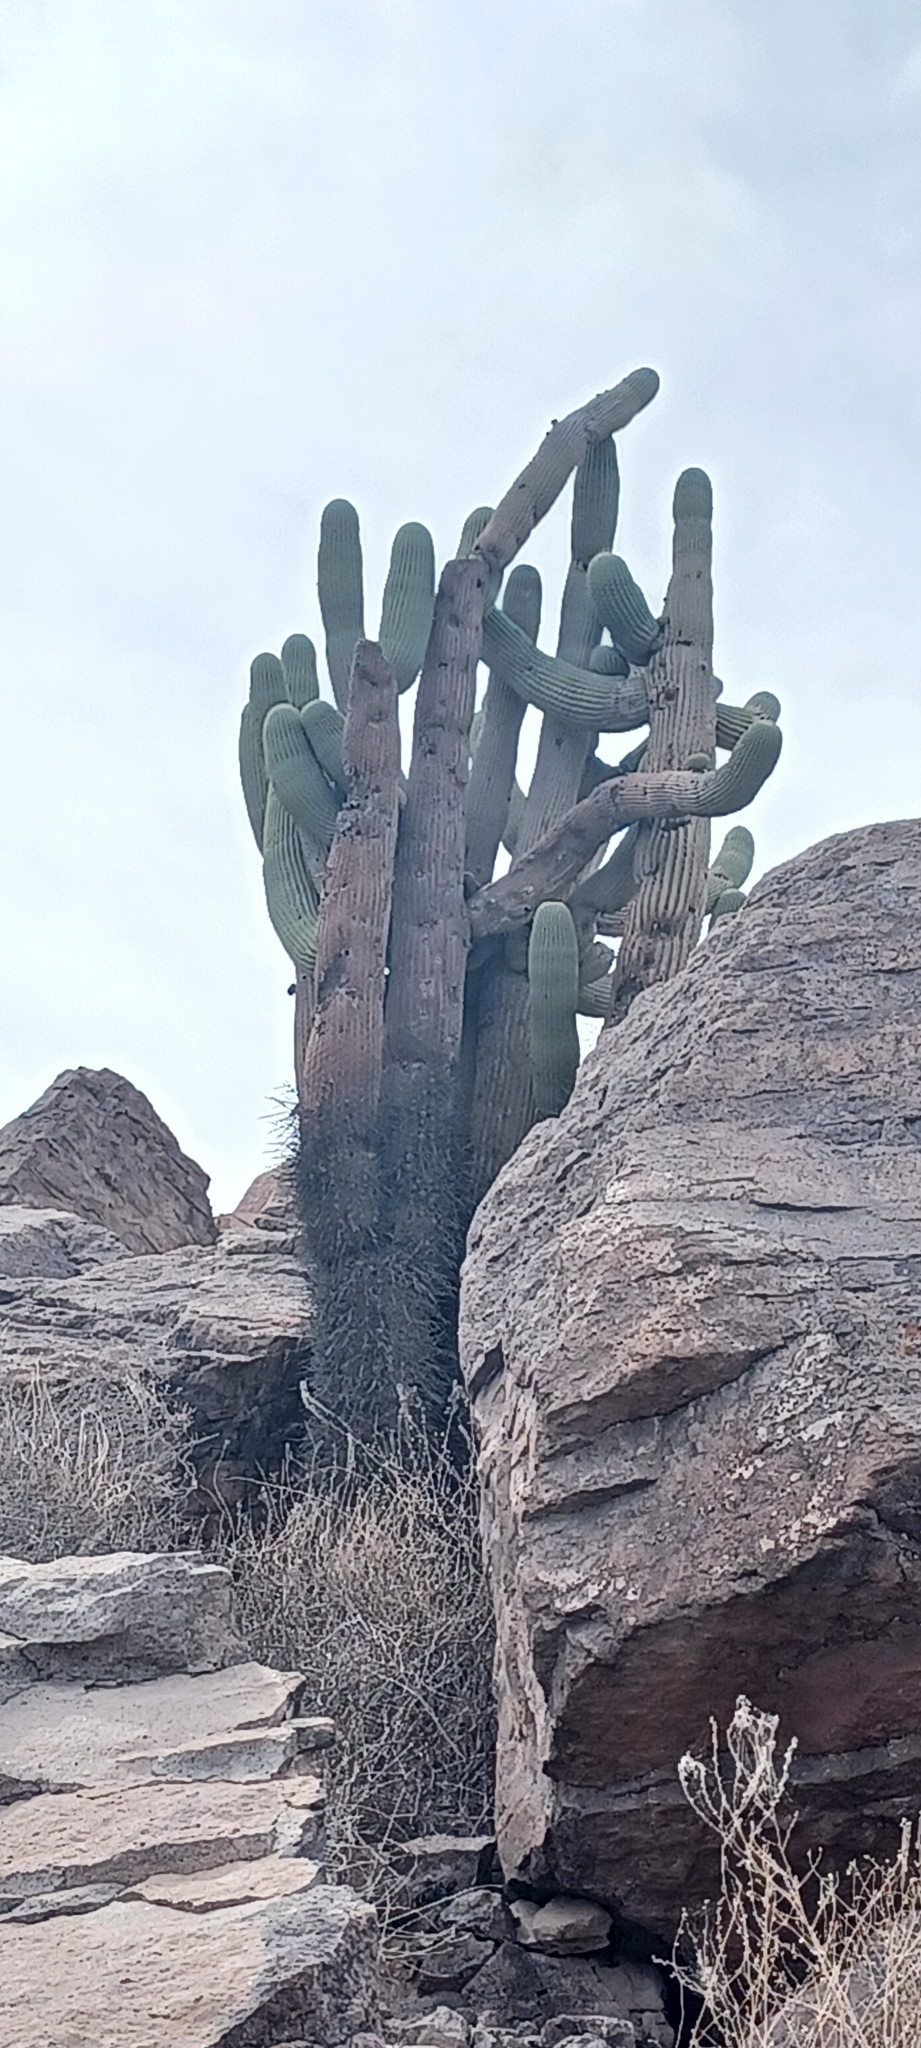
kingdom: Plantae
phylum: Tracheophyta
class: Magnoliopsida
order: Caryophyllales
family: Cactaceae
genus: Browningia
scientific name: Browningia candelaris
